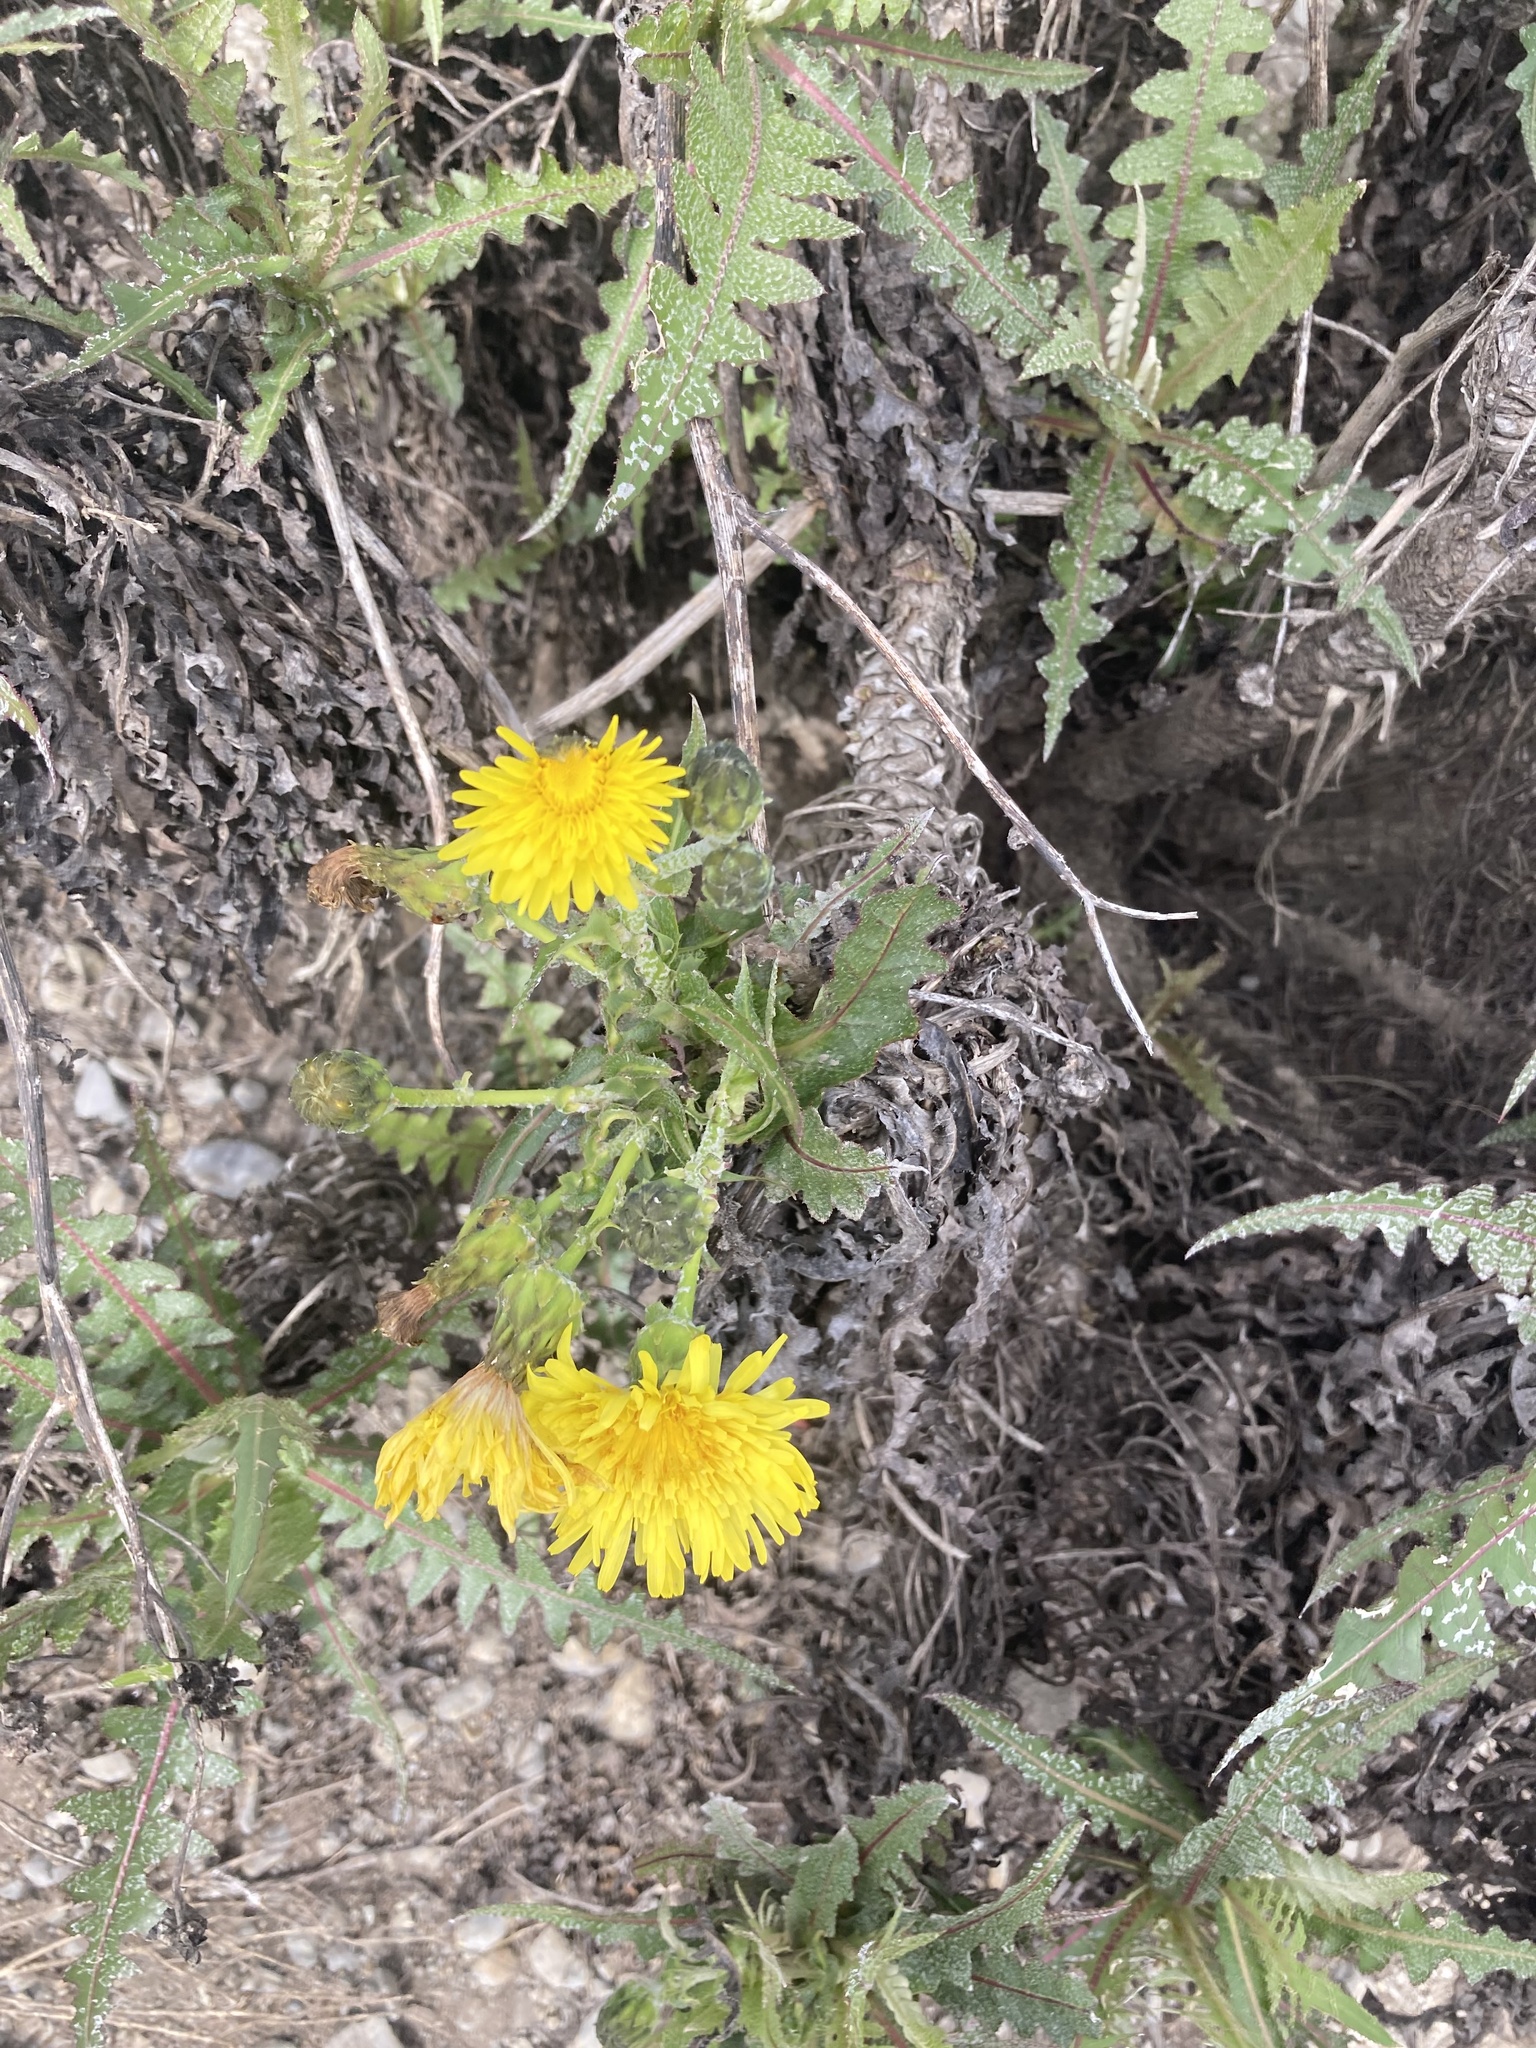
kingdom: Plantae
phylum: Tracheophyta
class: Magnoliopsida
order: Asterales
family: Asteraceae
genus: Sonchus
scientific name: Sonchus hierrensis
